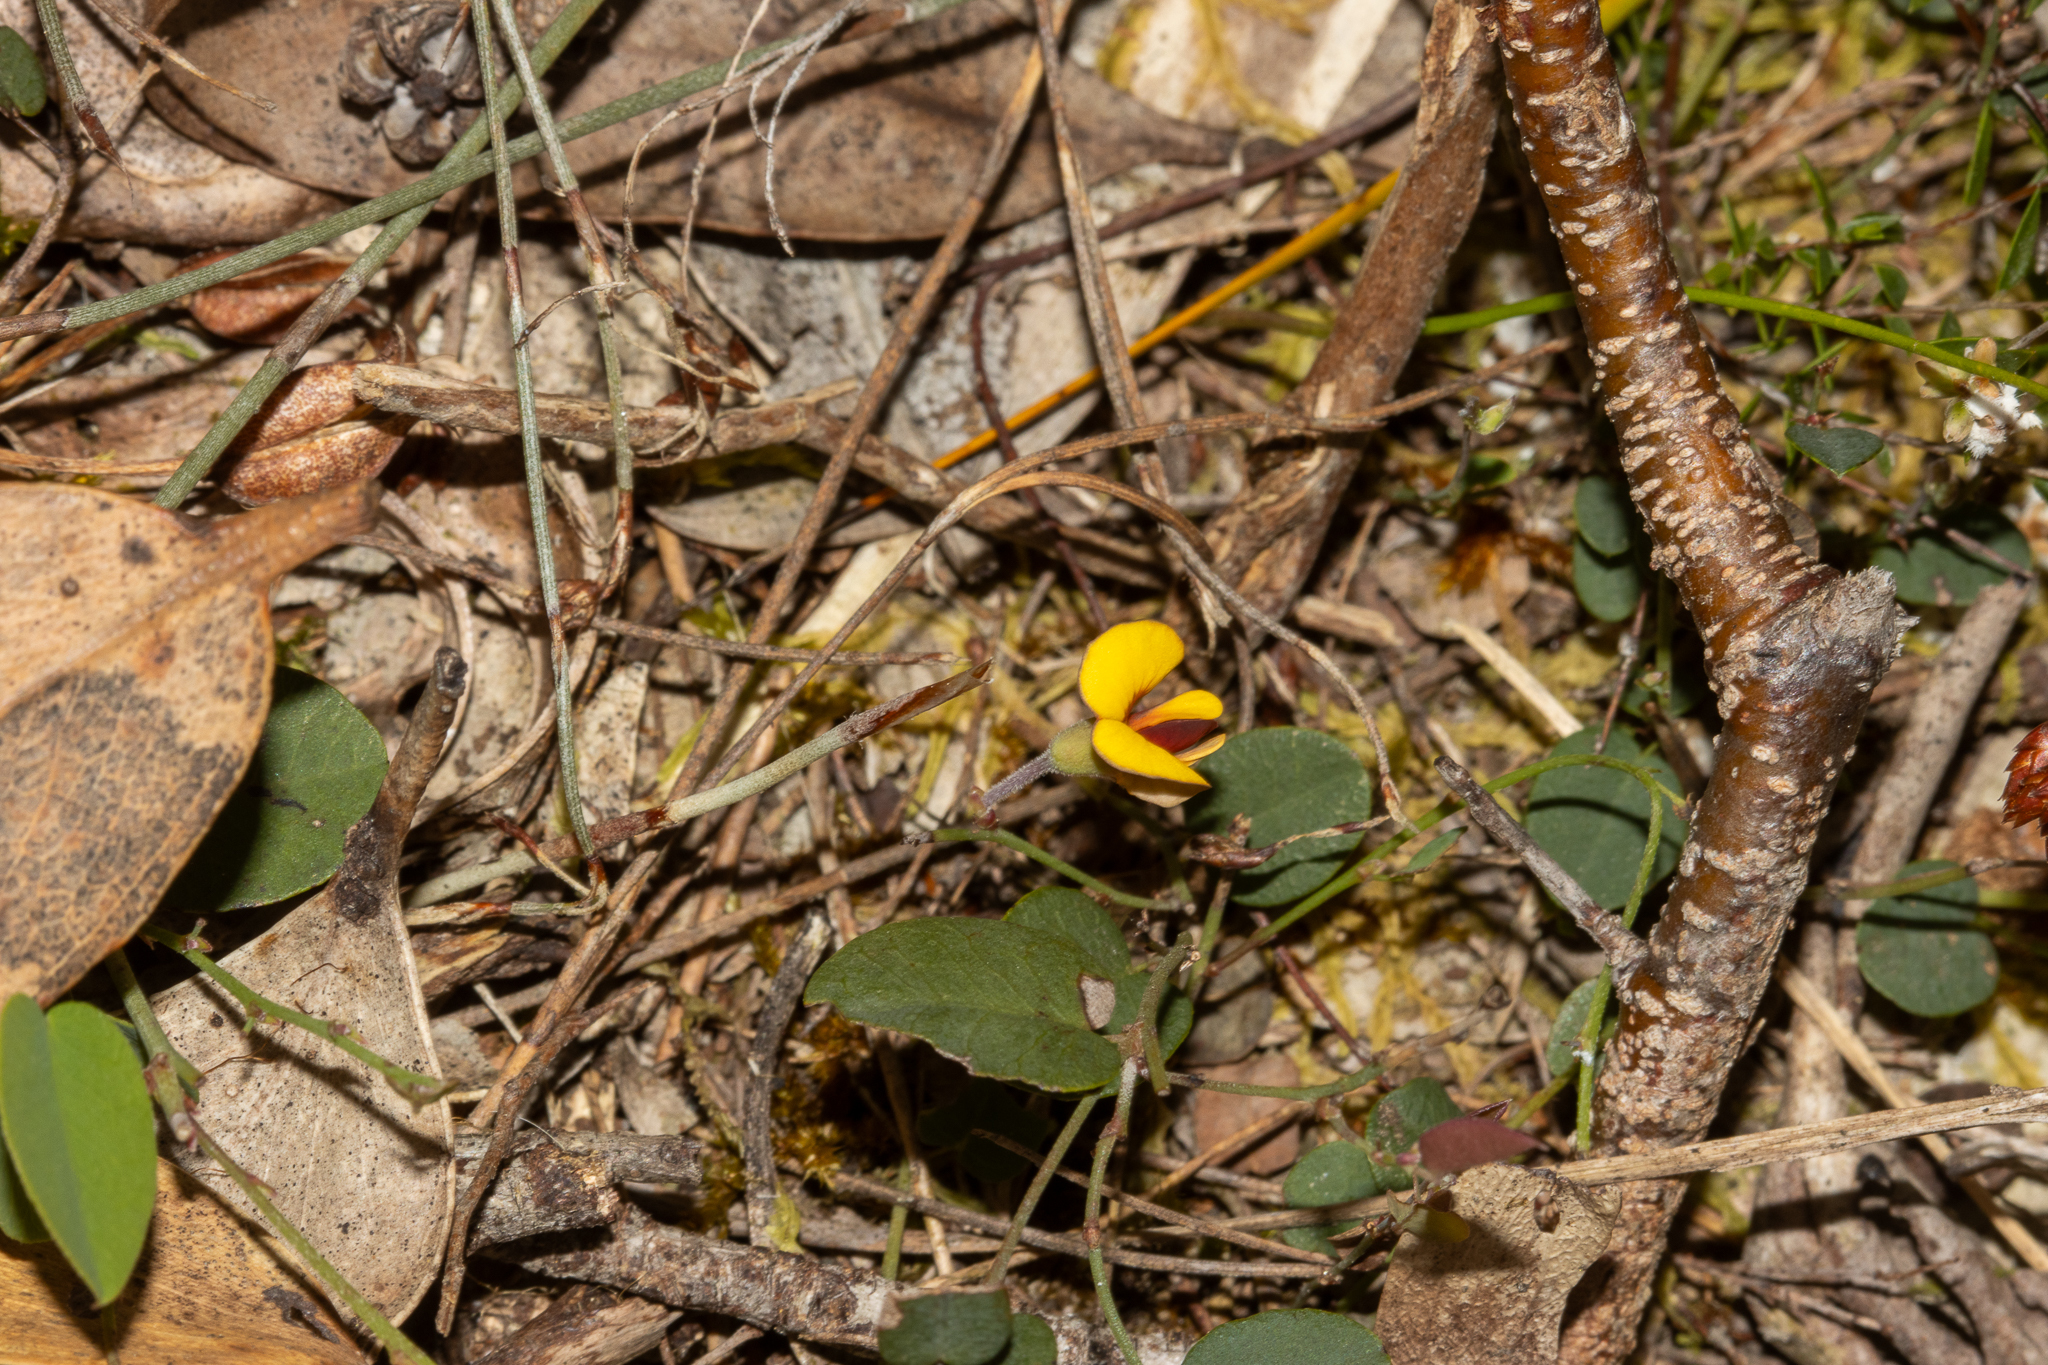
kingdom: Plantae
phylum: Tracheophyta
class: Magnoliopsida
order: Fabales
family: Fabaceae
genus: Bossiaea
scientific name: Bossiaea prostrata
